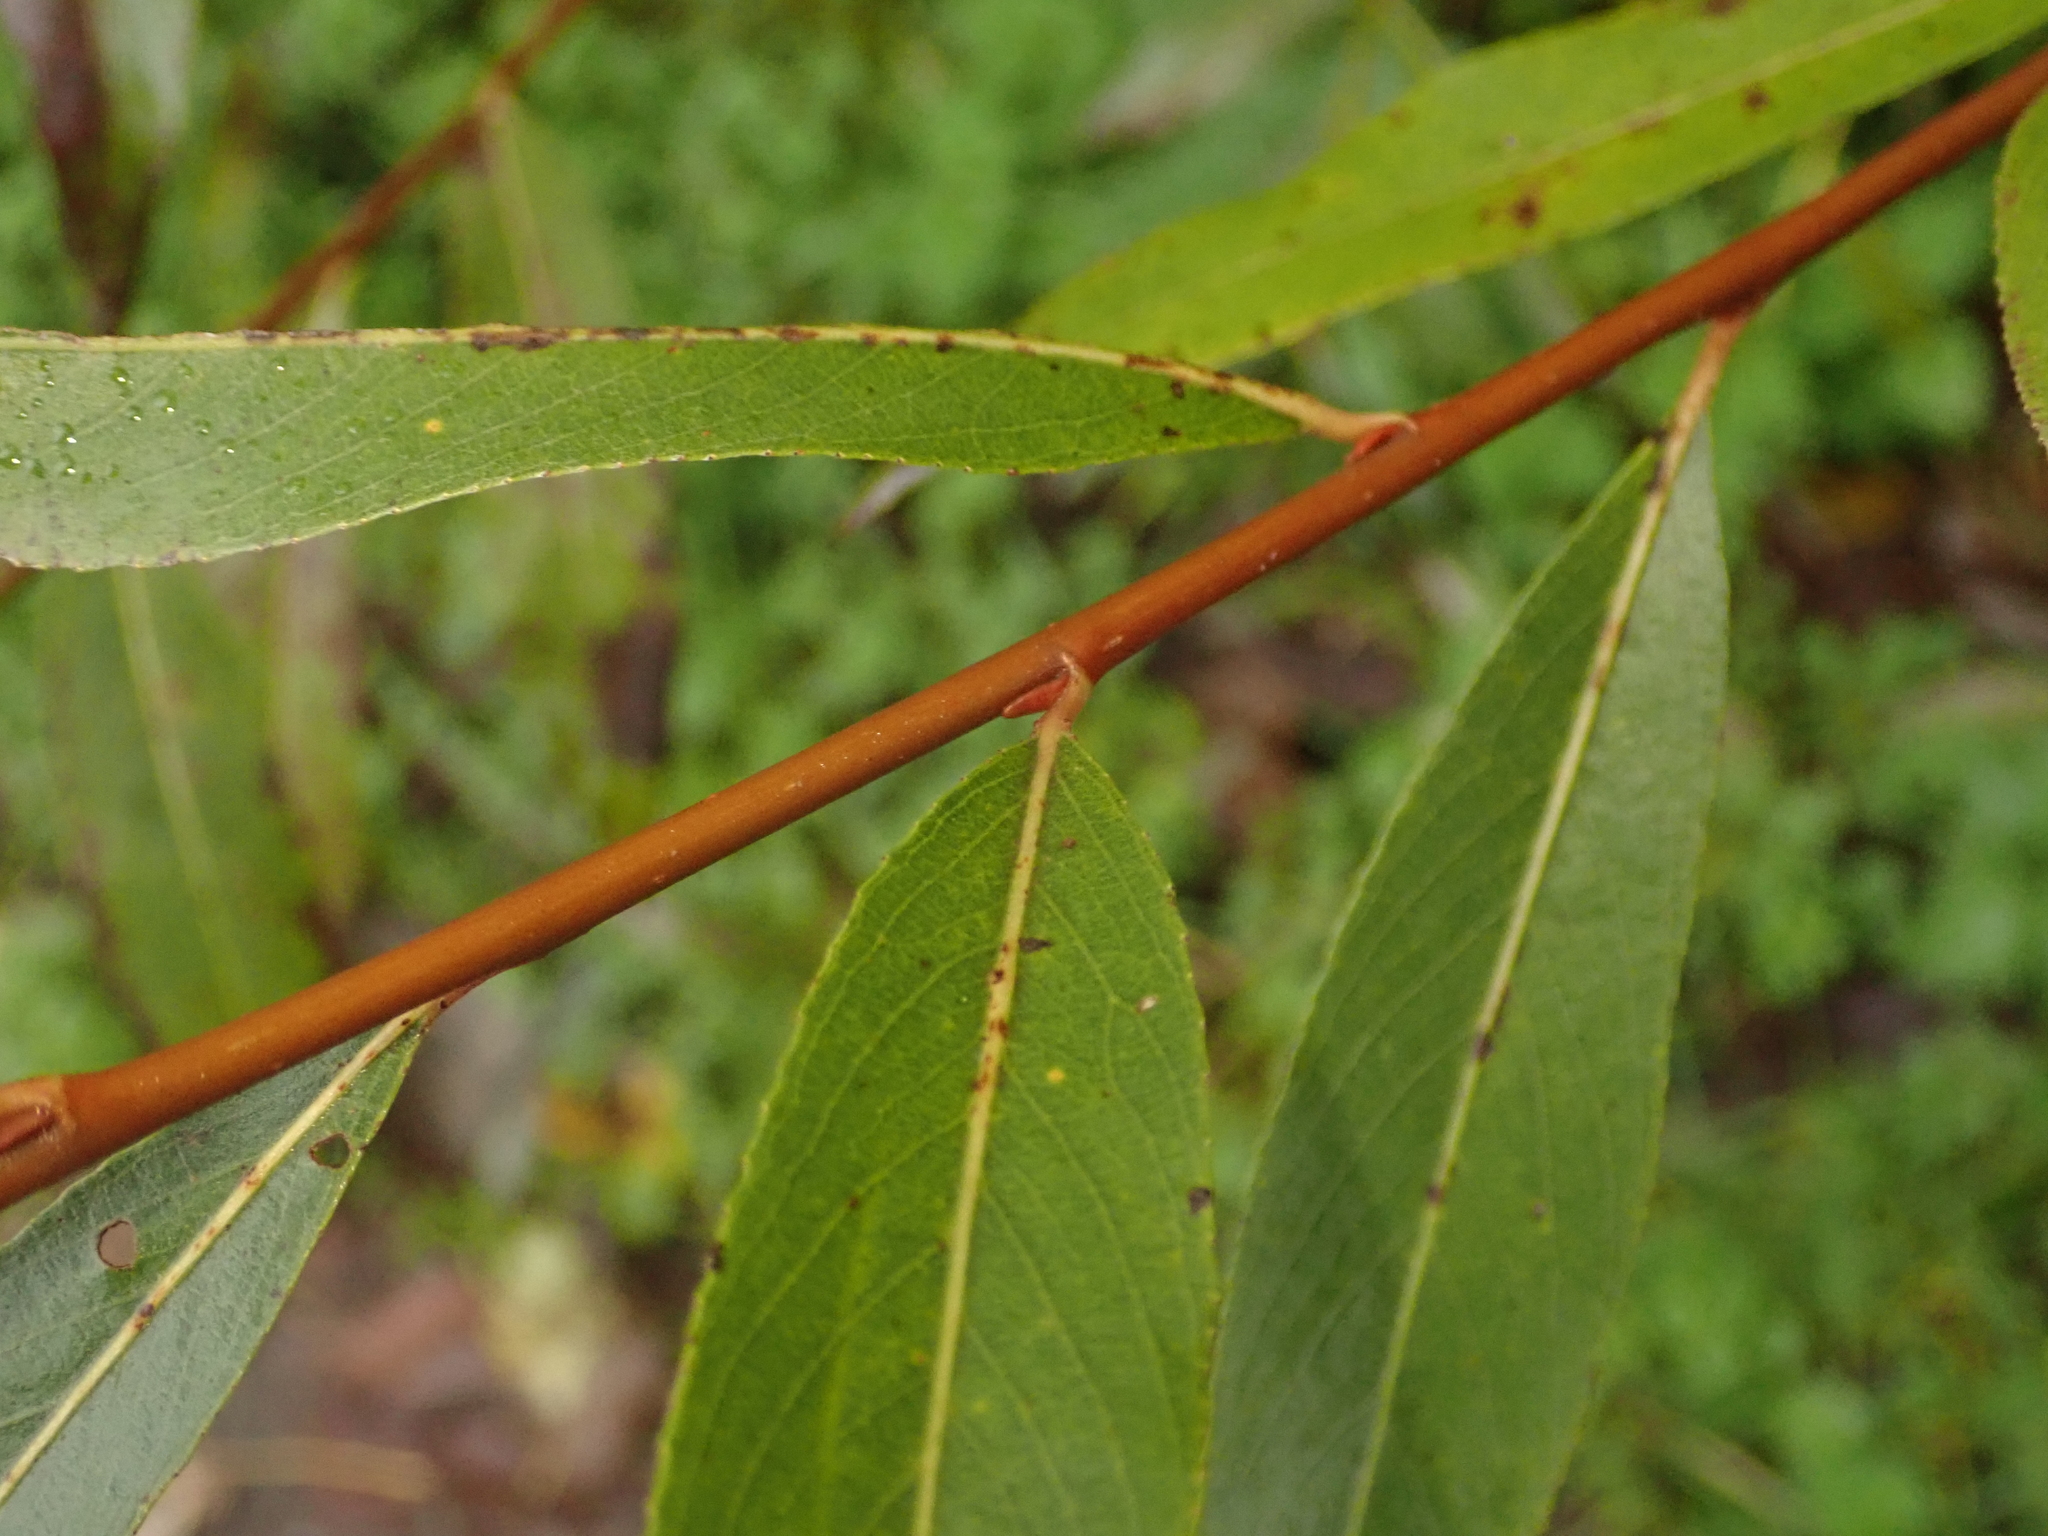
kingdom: Plantae
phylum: Tracheophyta
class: Magnoliopsida
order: Malpighiales
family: Salicaceae
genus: Salix
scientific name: Salix alba
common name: White willow
